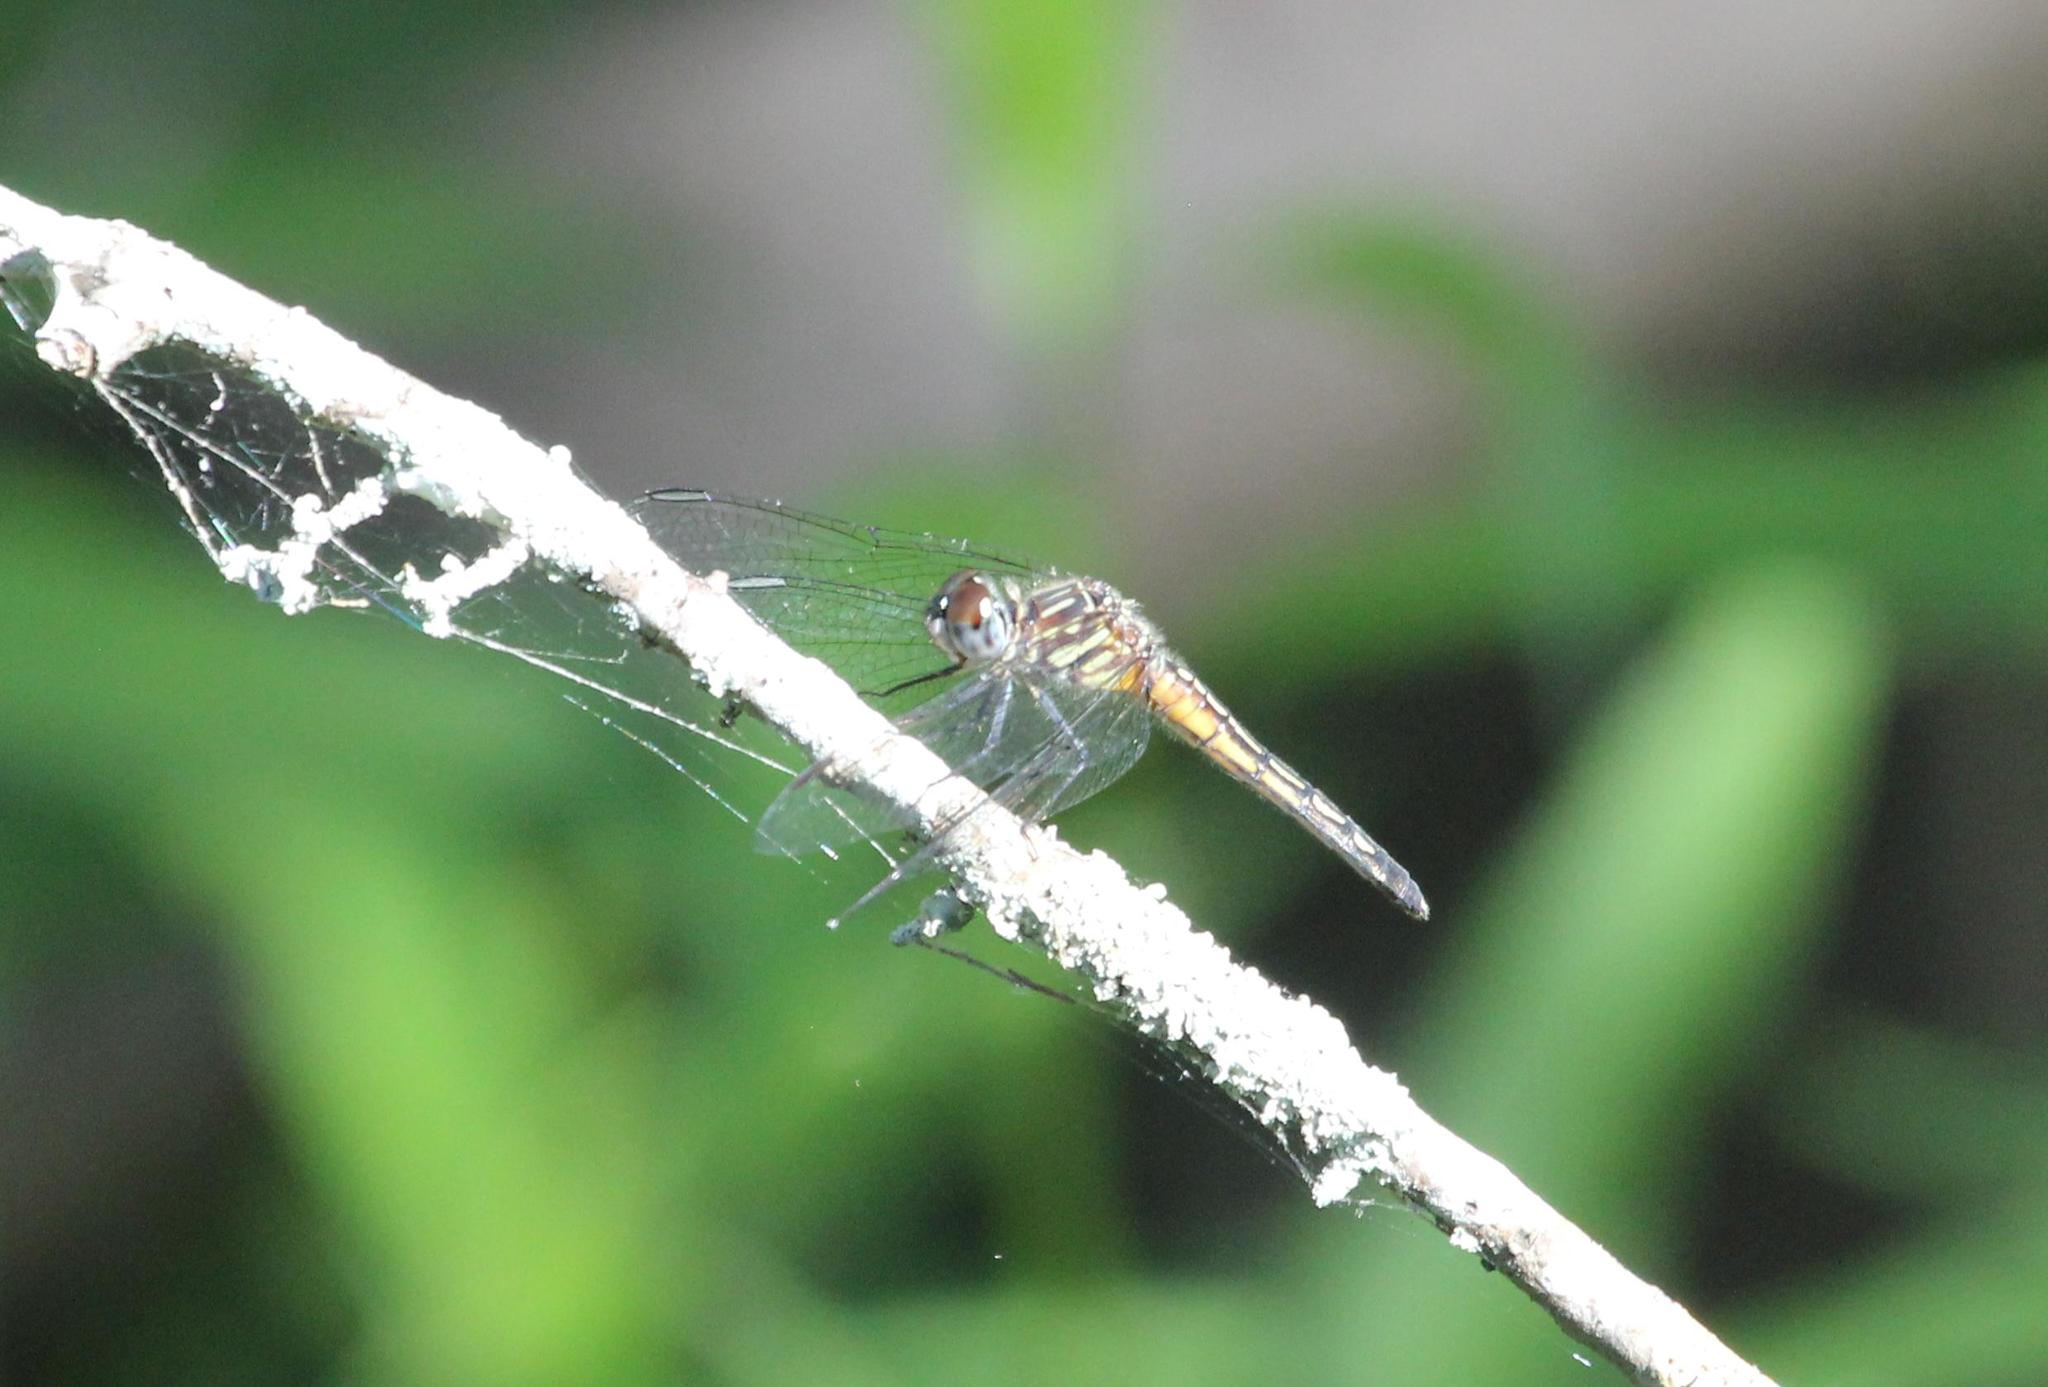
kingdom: Animalia
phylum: Arthropoda
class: Insecta
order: Odonata
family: Libellulidae
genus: Pachydiplax
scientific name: Pachydiplax longipennis
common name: Blue dasher
